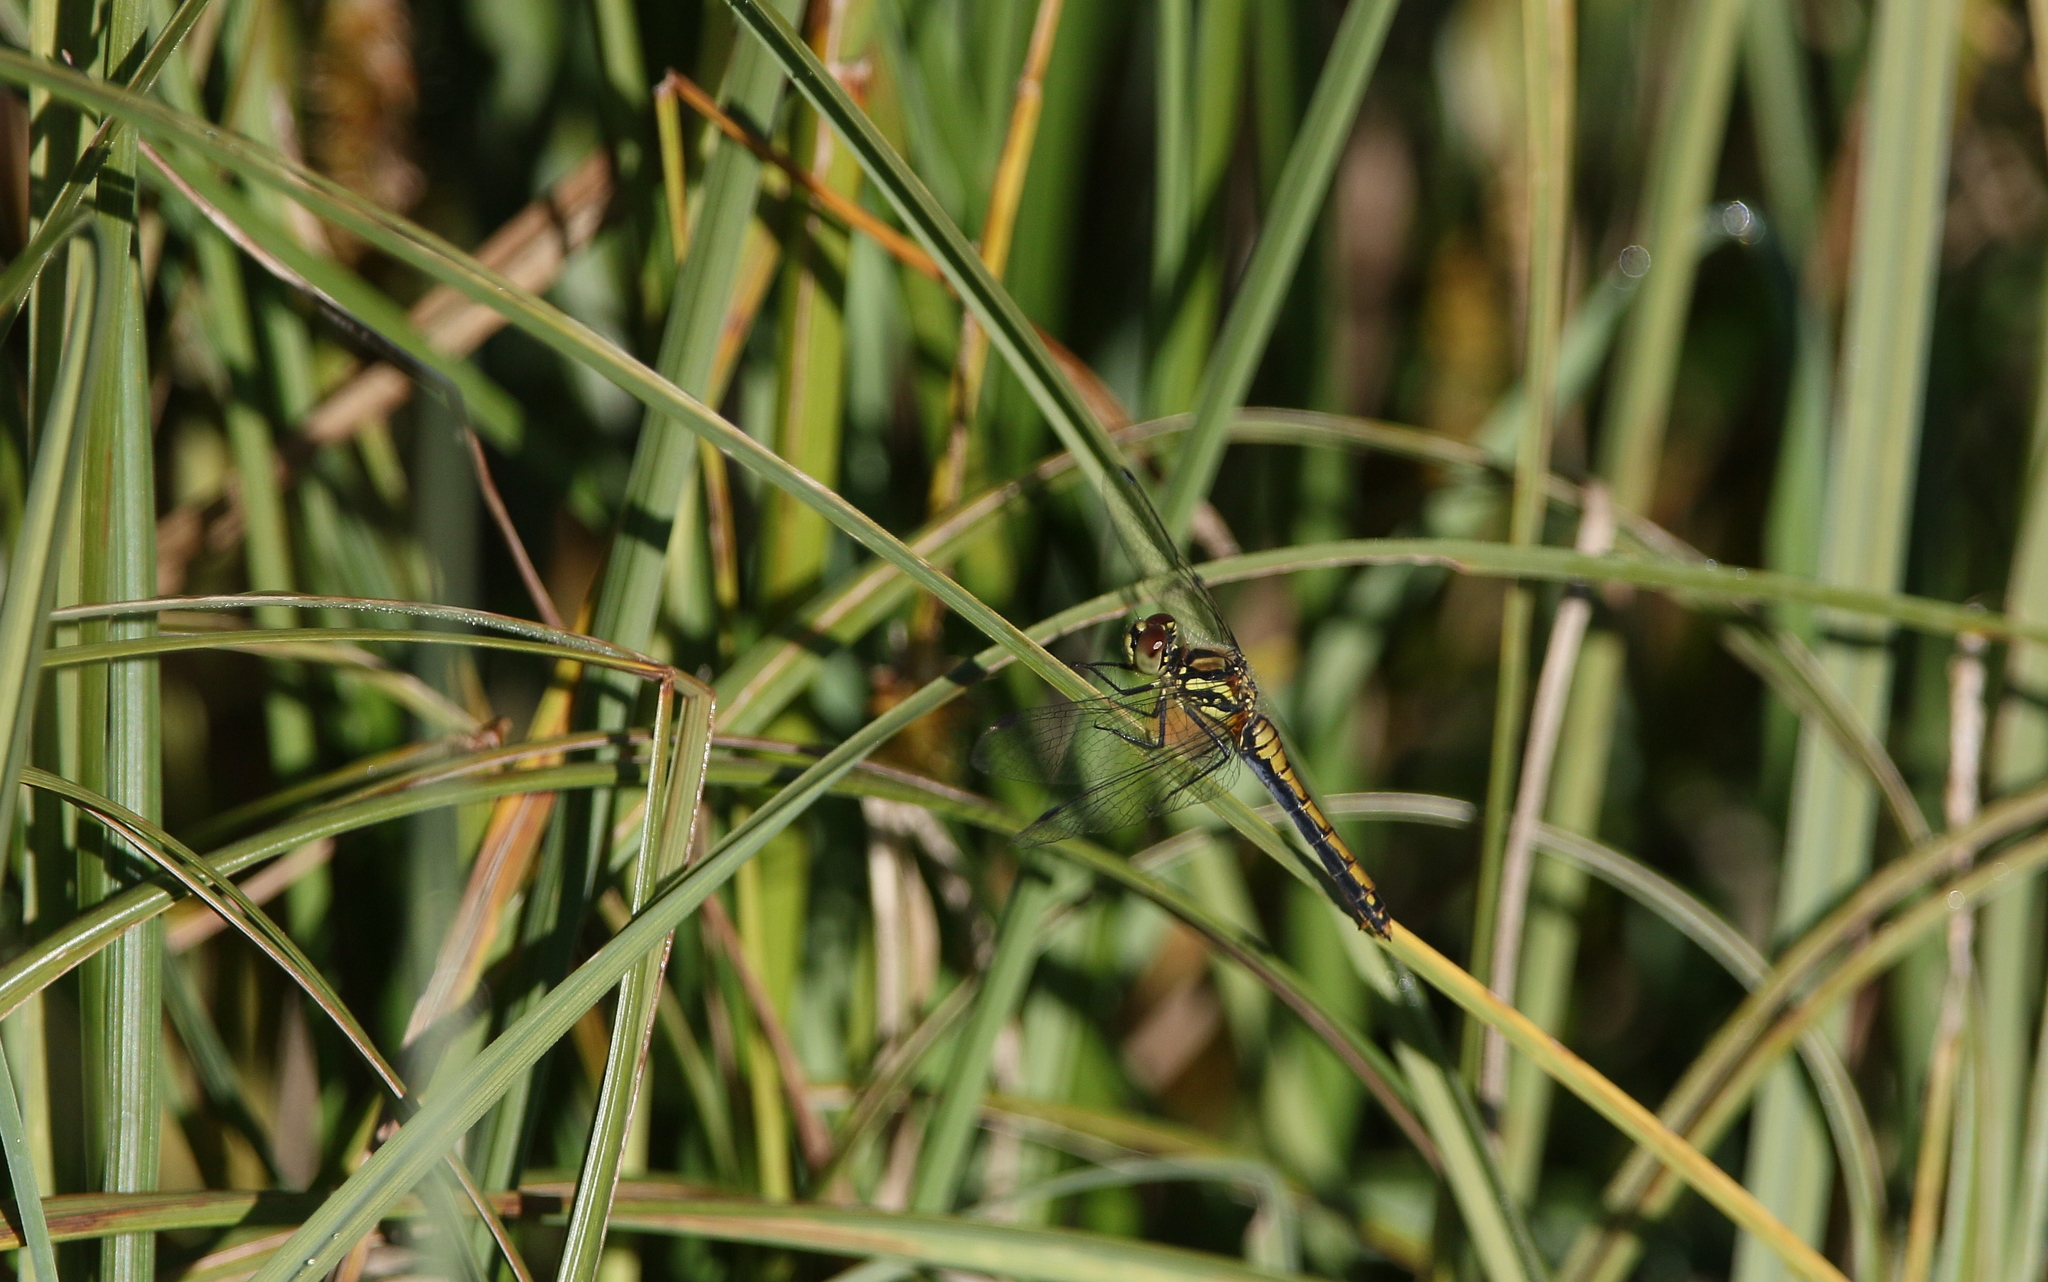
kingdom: Animalia
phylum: Arthropoda
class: Insecta
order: Odonata
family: Libellulidae
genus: Sympetrum
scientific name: Sympetrum danae
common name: Black darter
